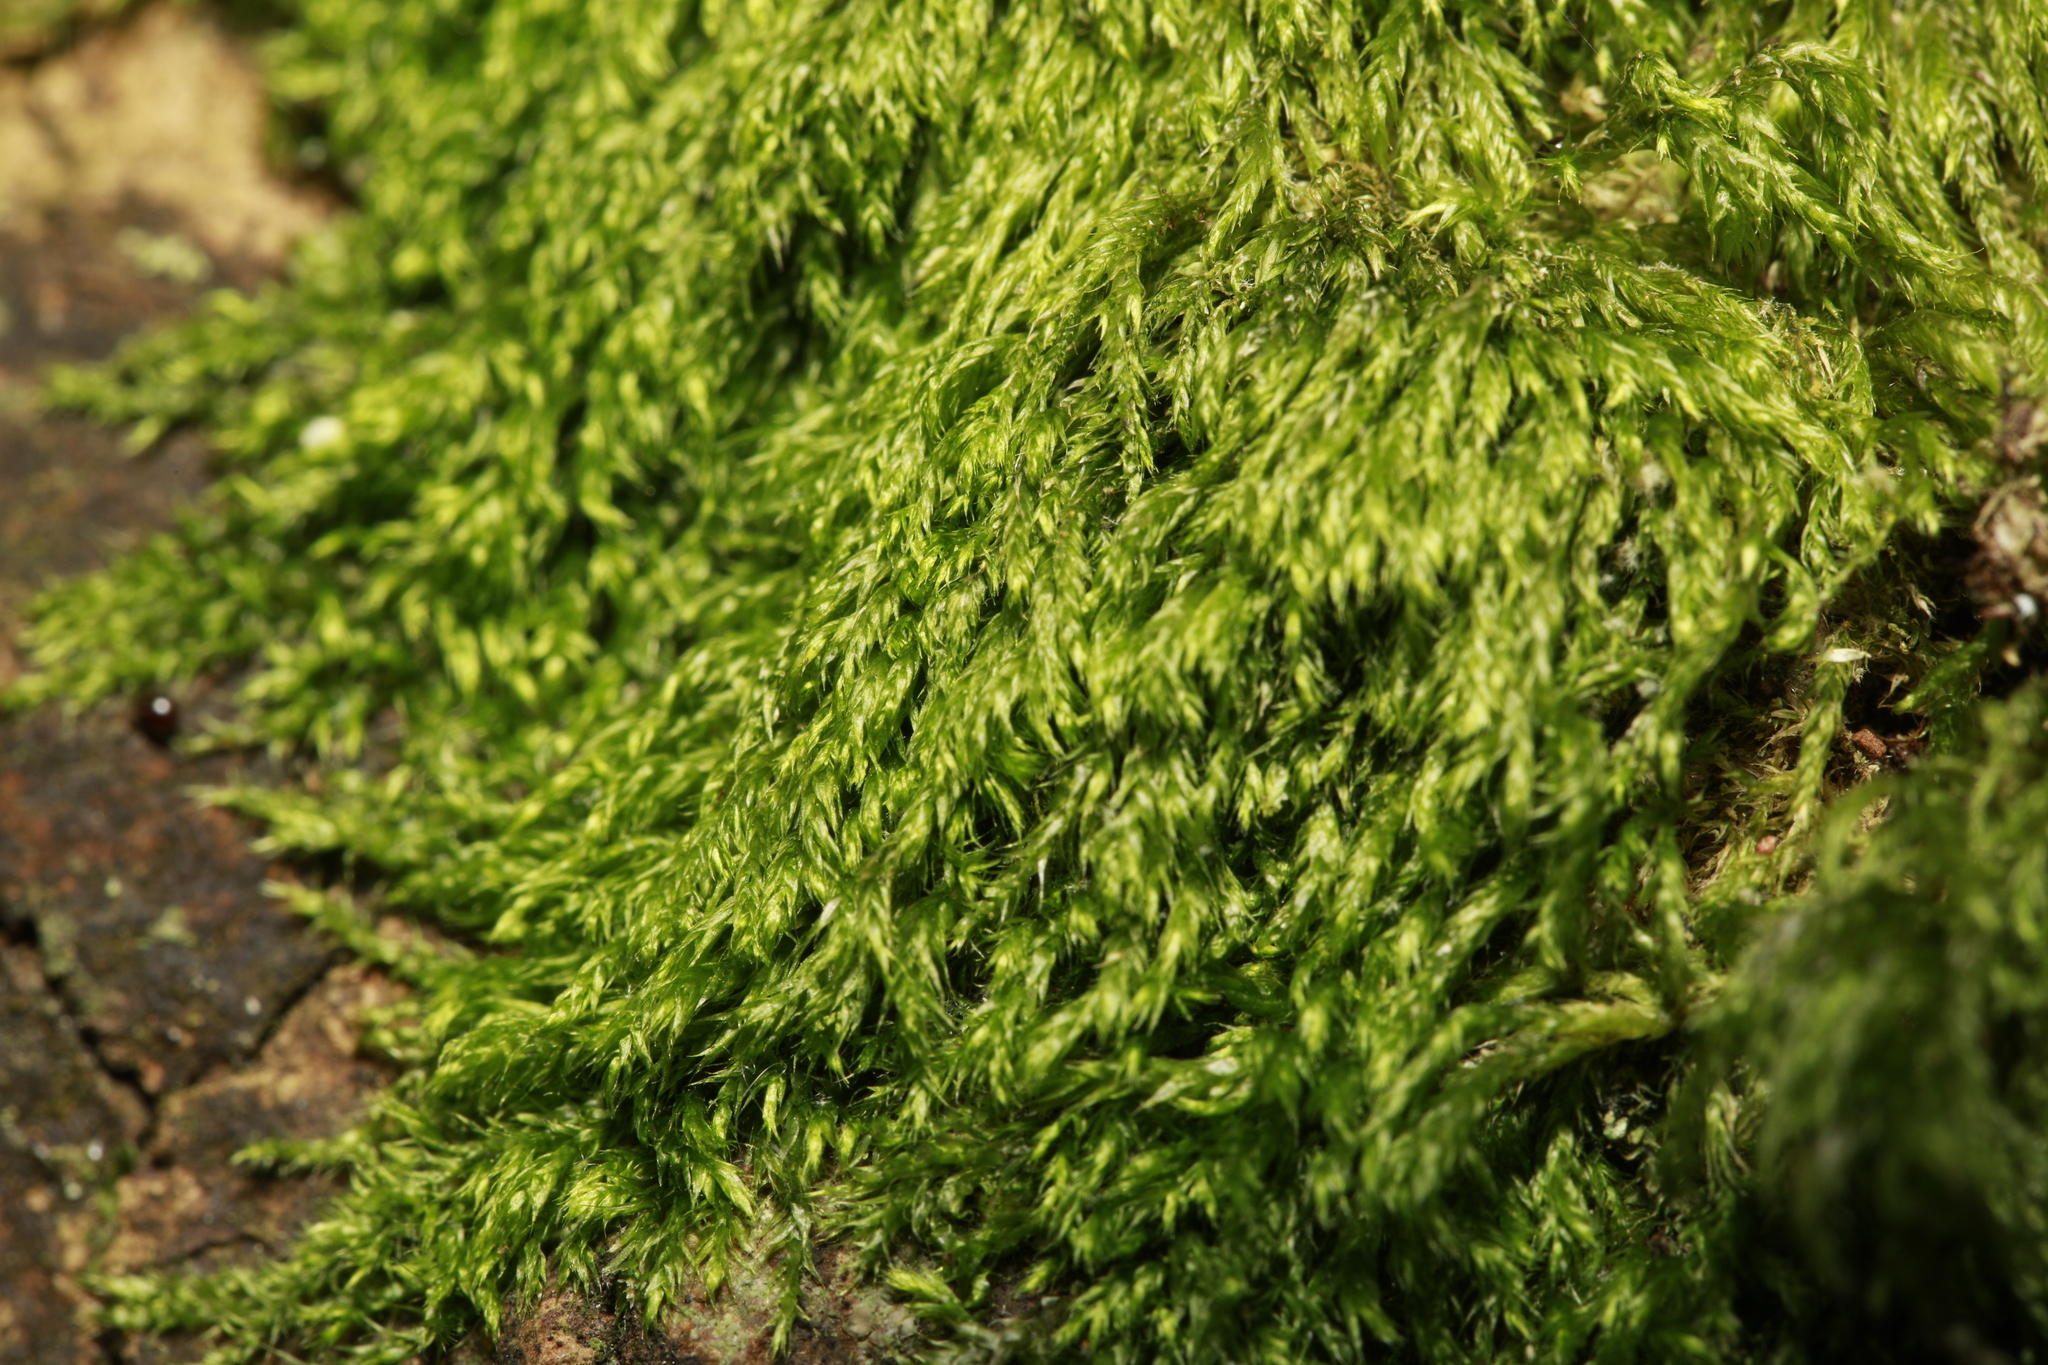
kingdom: Plantae
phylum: Bryophyta
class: Bryopsida
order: Hypnales
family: Hypnaceae
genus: Hypnum
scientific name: Hypnum cupressiforme
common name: Cypress-leaved plait-moss
